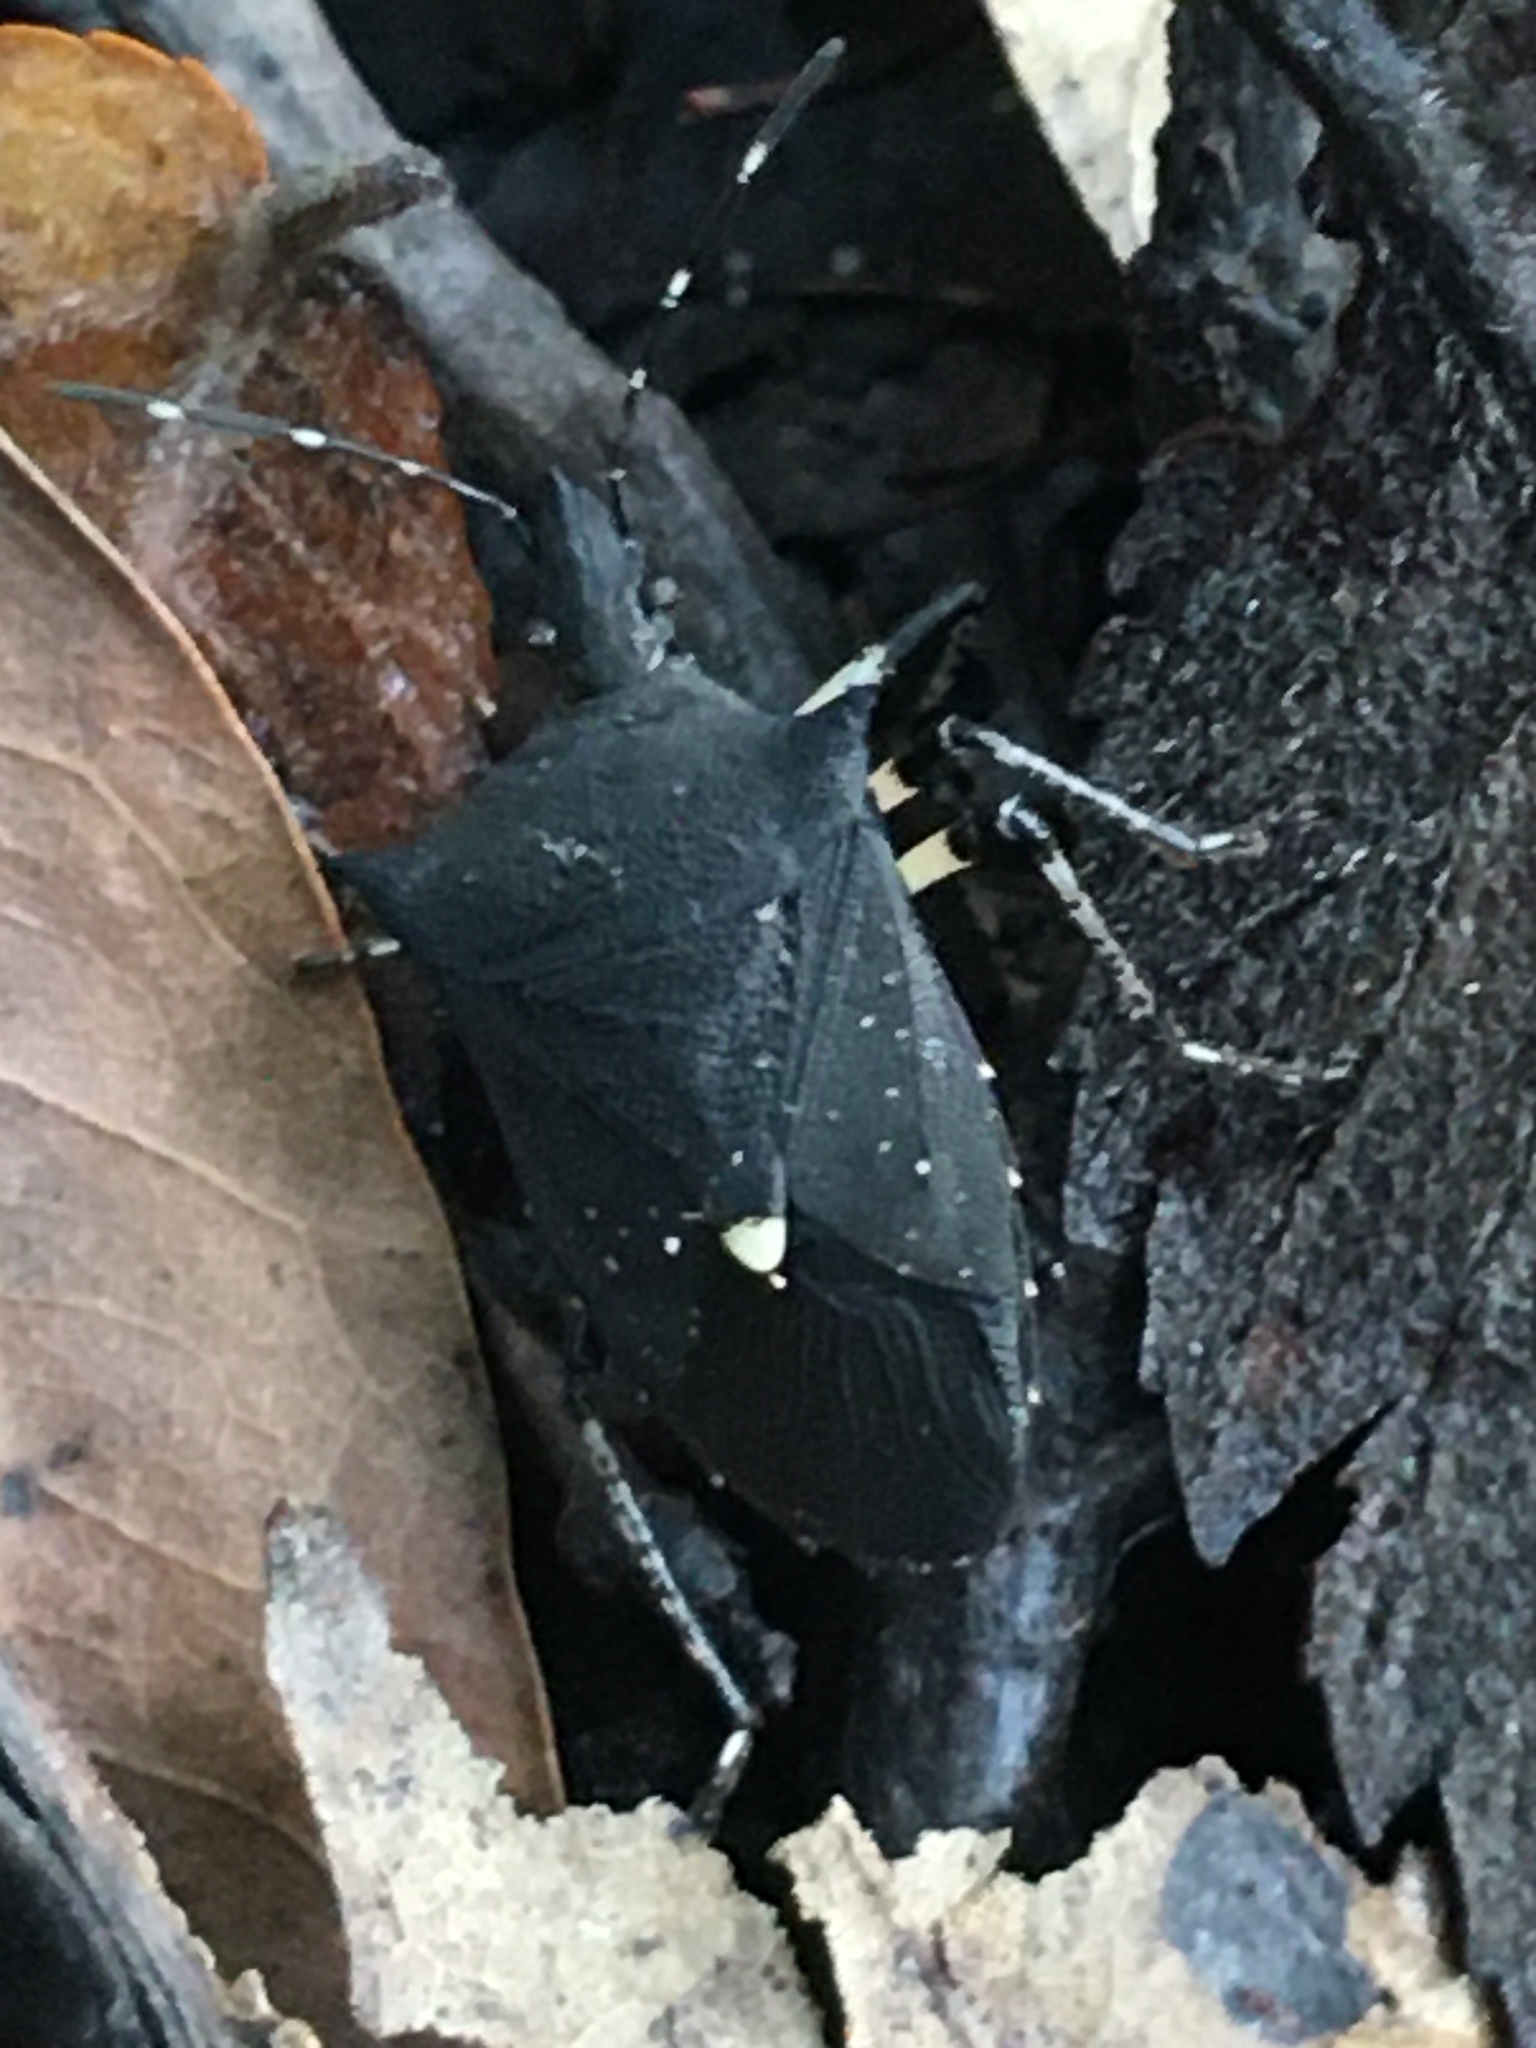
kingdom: Animalia
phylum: Arthropoda
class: Insecta
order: Hemiptera
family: Pentatomidae
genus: Proxys
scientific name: Proxys punctulatus
